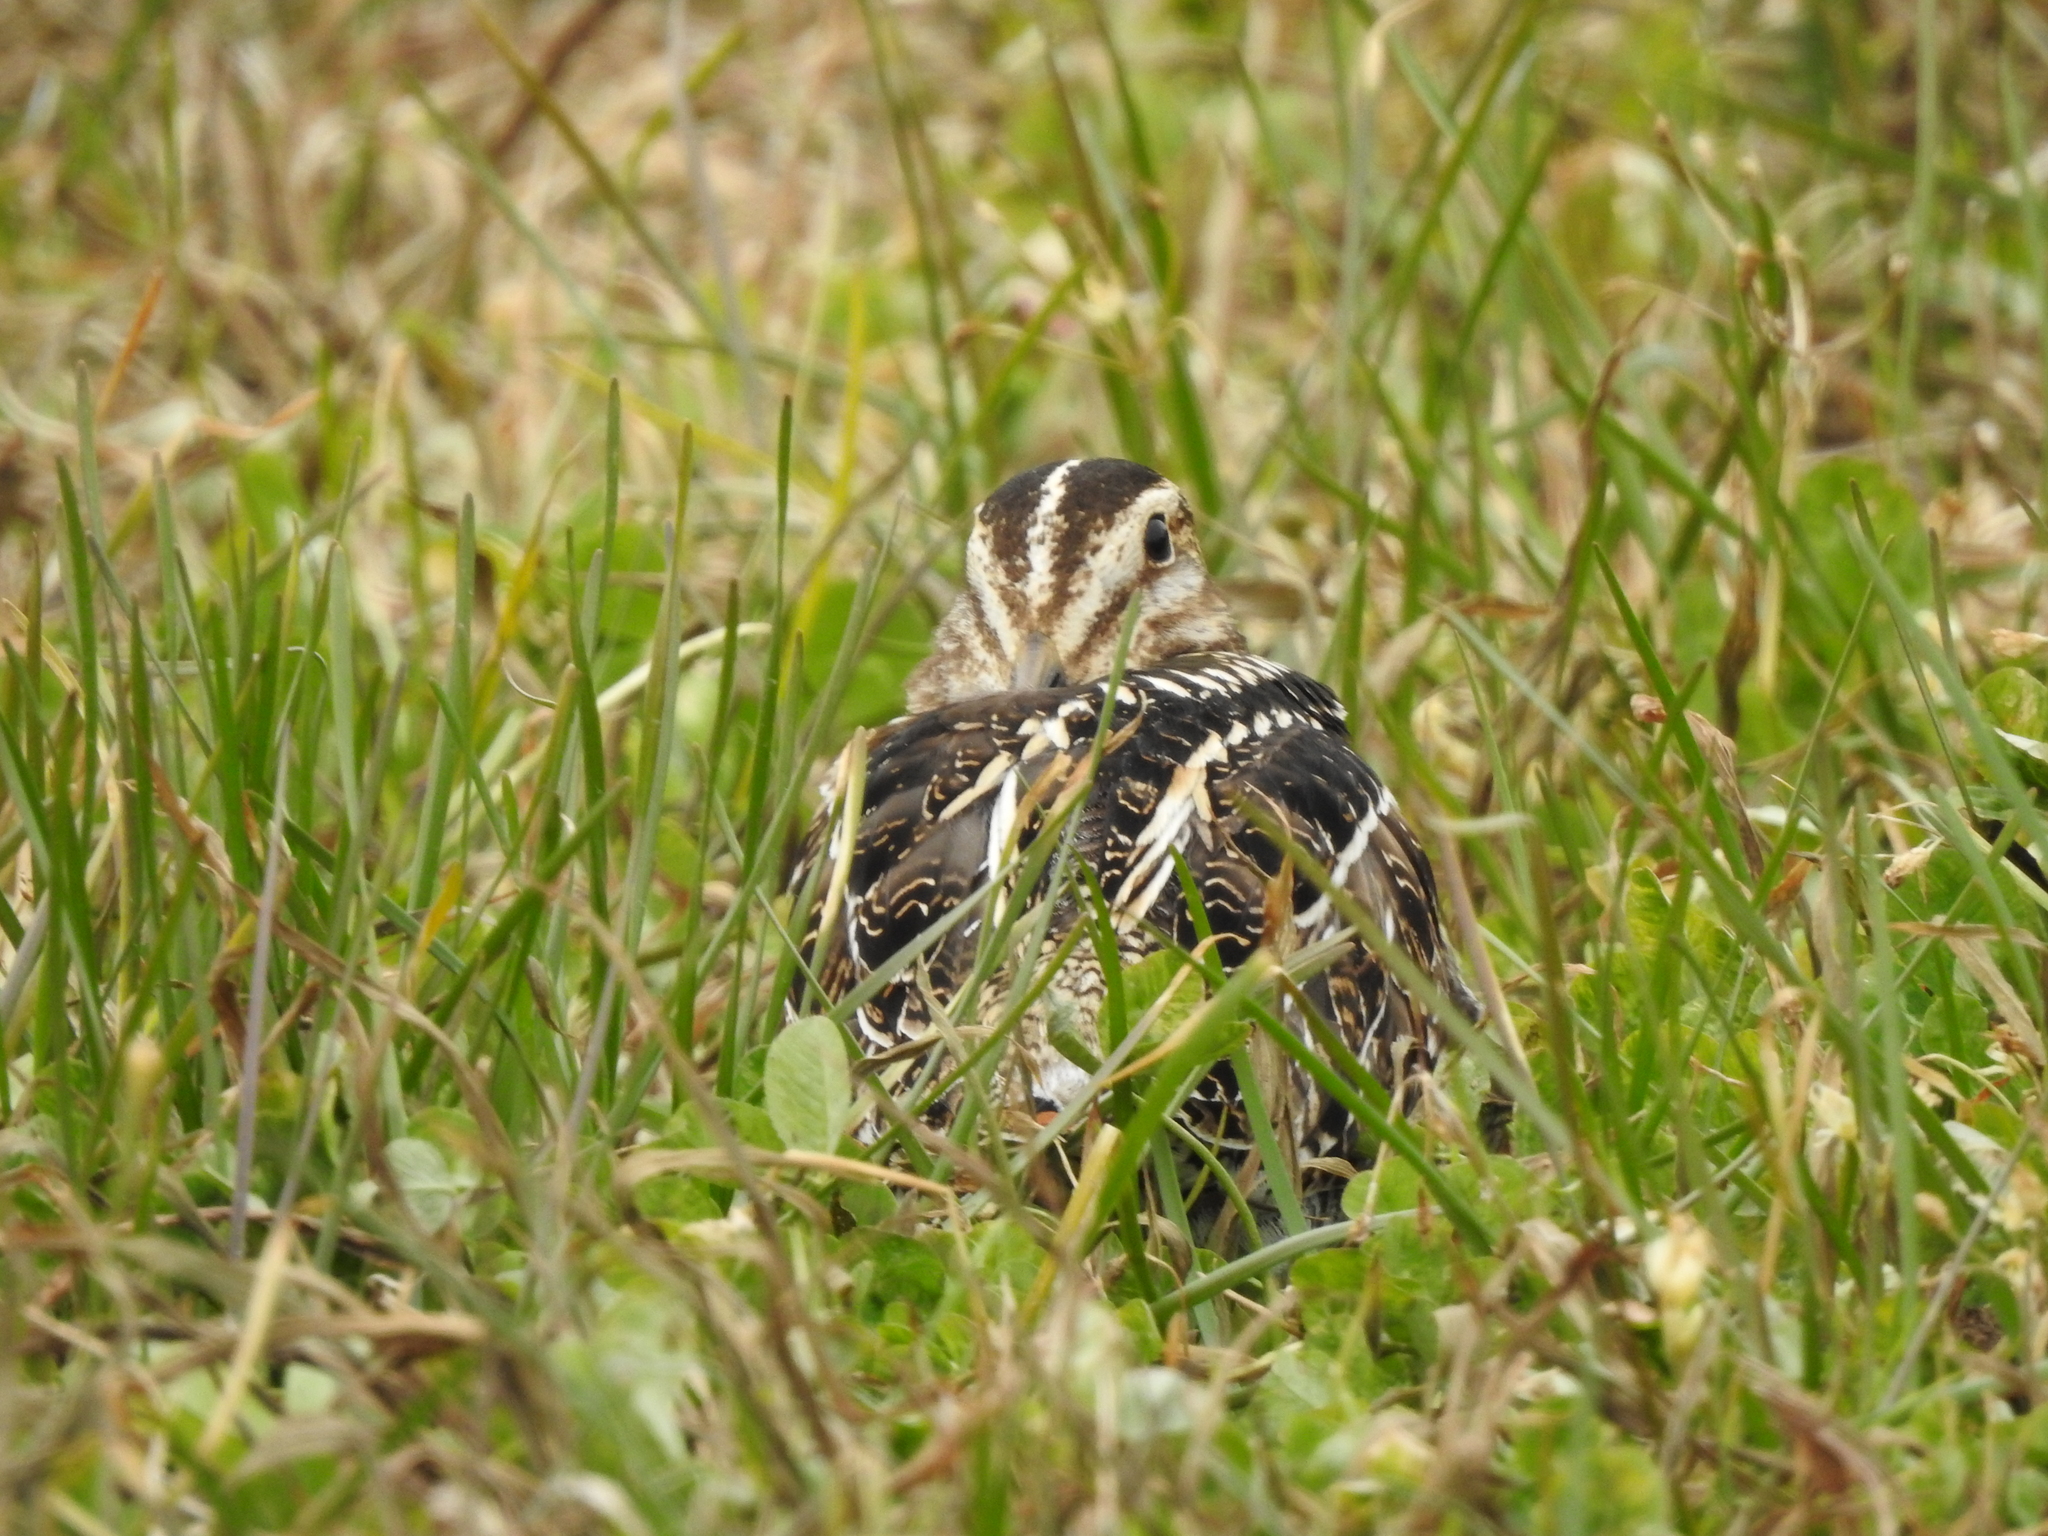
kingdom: Animalia
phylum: Chordata
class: Aves
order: Charadriiformes
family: Scolopacidae
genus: Gallinago
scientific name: Gallinago delicata
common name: Wilson's snipe
